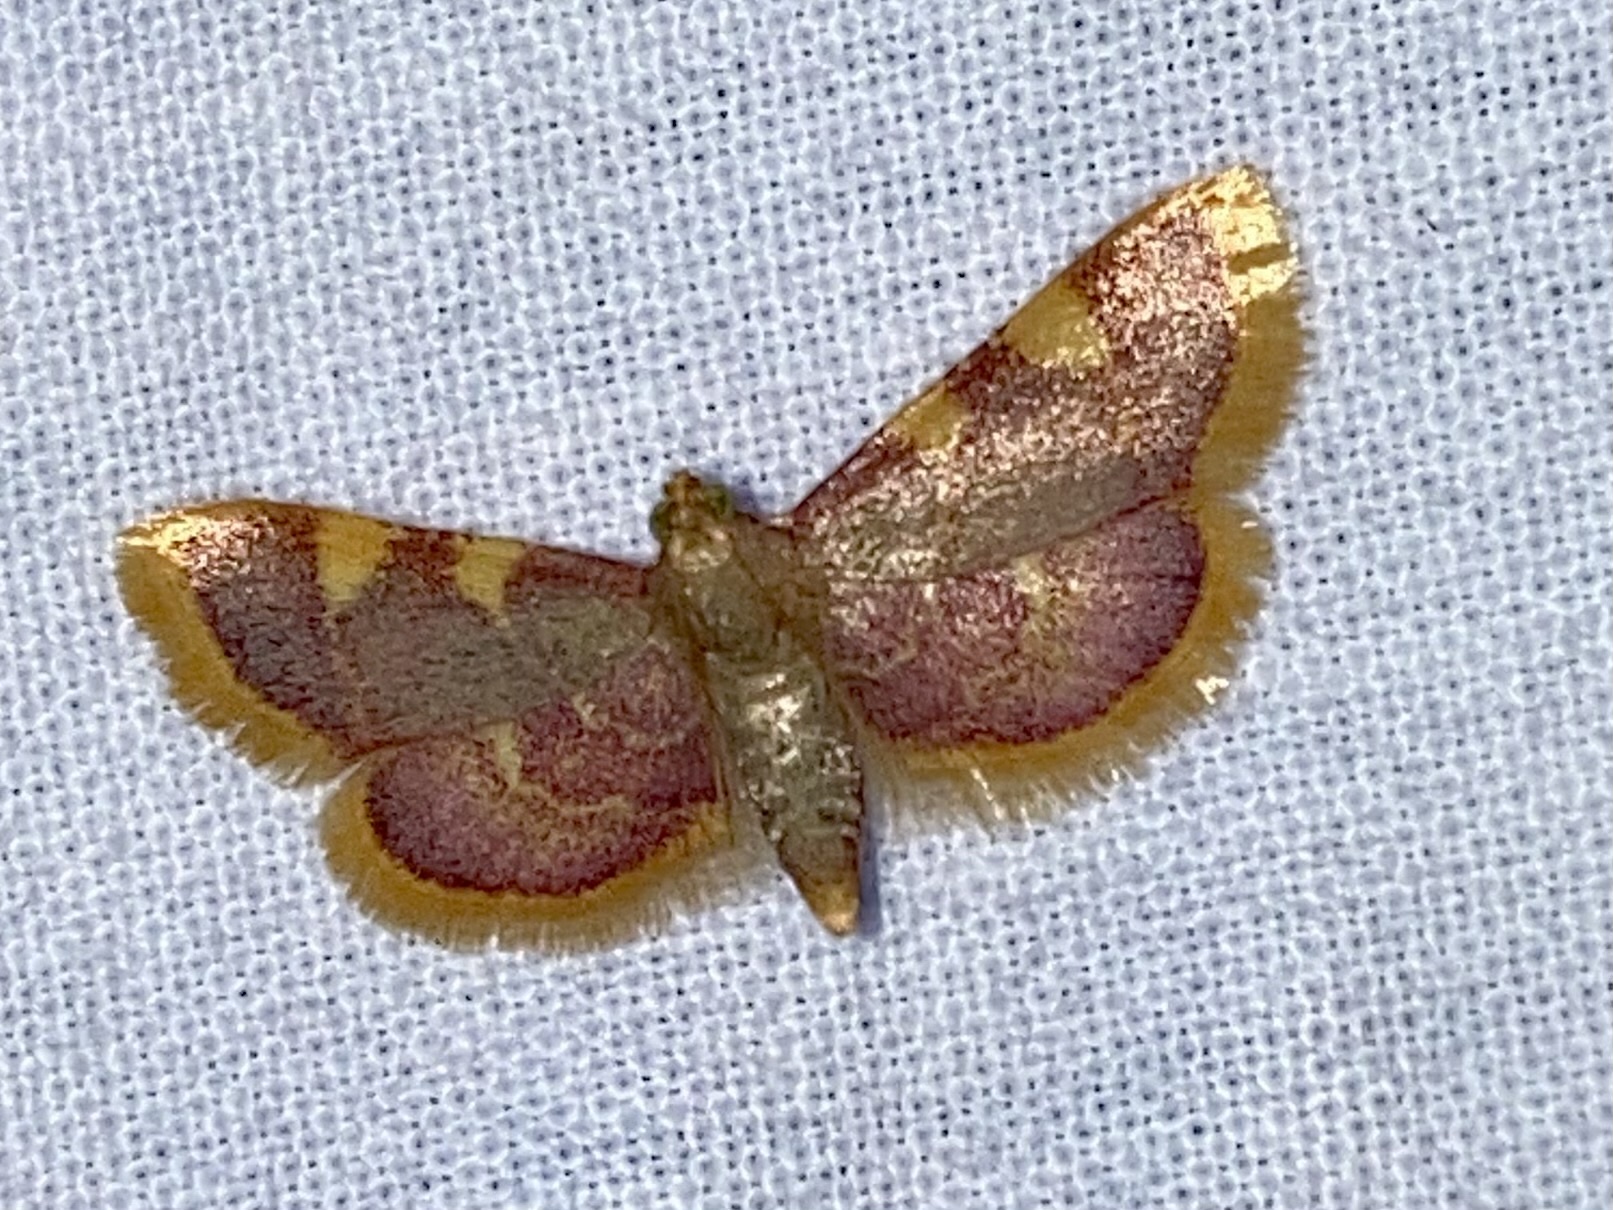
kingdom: Animalia
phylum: Arthropoda
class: Insecta
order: Lepidoptera
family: Pyralidae
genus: Hypsopygia
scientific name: Hypsopygia costalis
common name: Gold triangle
